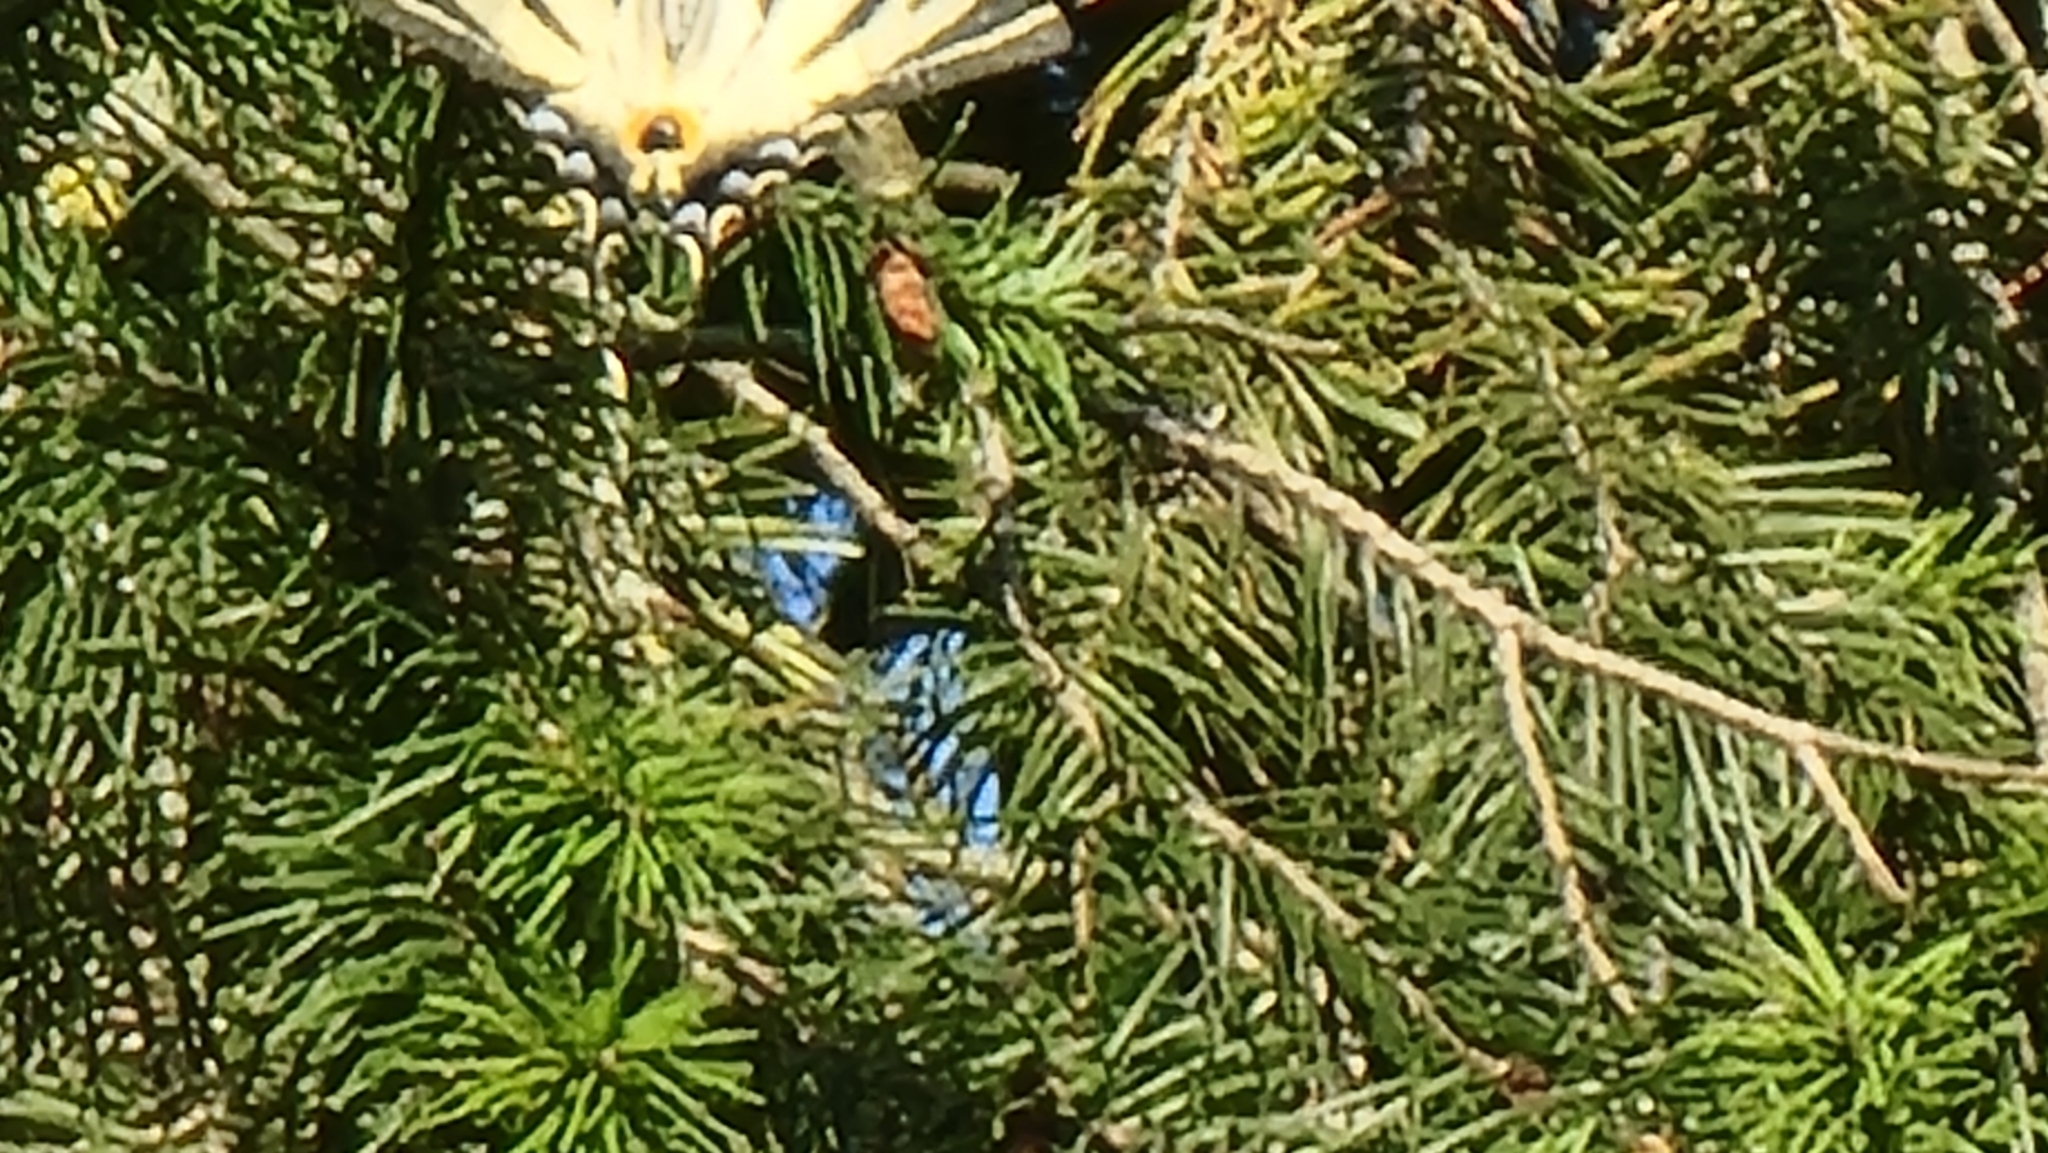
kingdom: Animalia
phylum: Arthropoda
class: Insecta
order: Lepidoptera
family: Papilionidae
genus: Iphiclides
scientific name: Iphiclides podalirius
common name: Scarce swallowtail
